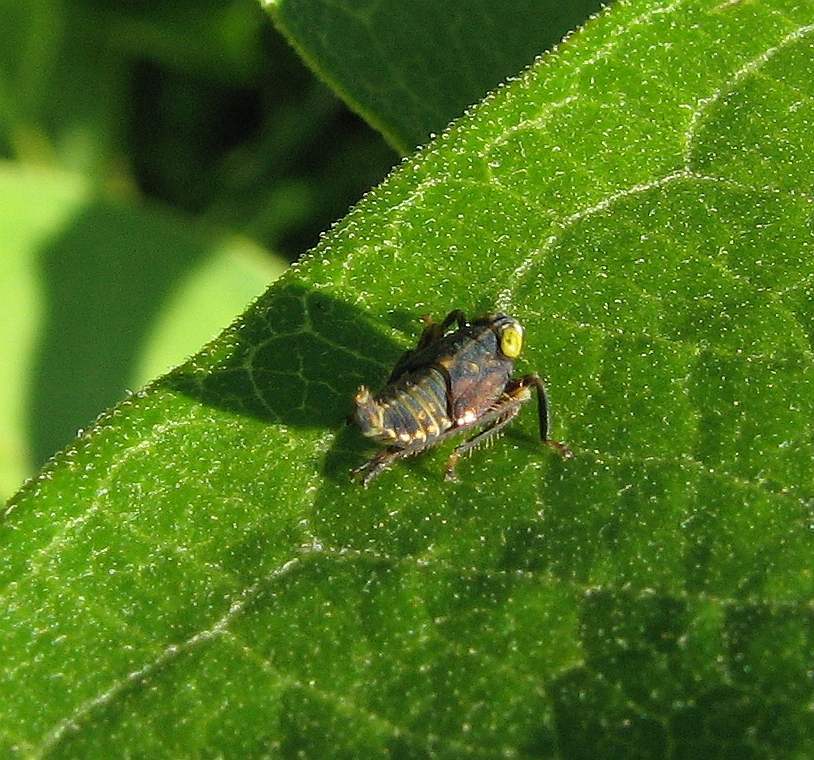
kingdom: Animalia
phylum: Arthropoda
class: Insecta
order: Hemiptera
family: Cicadellidae
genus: Jikradia
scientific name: Jikradia olitoria
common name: Coppery leafhopper
